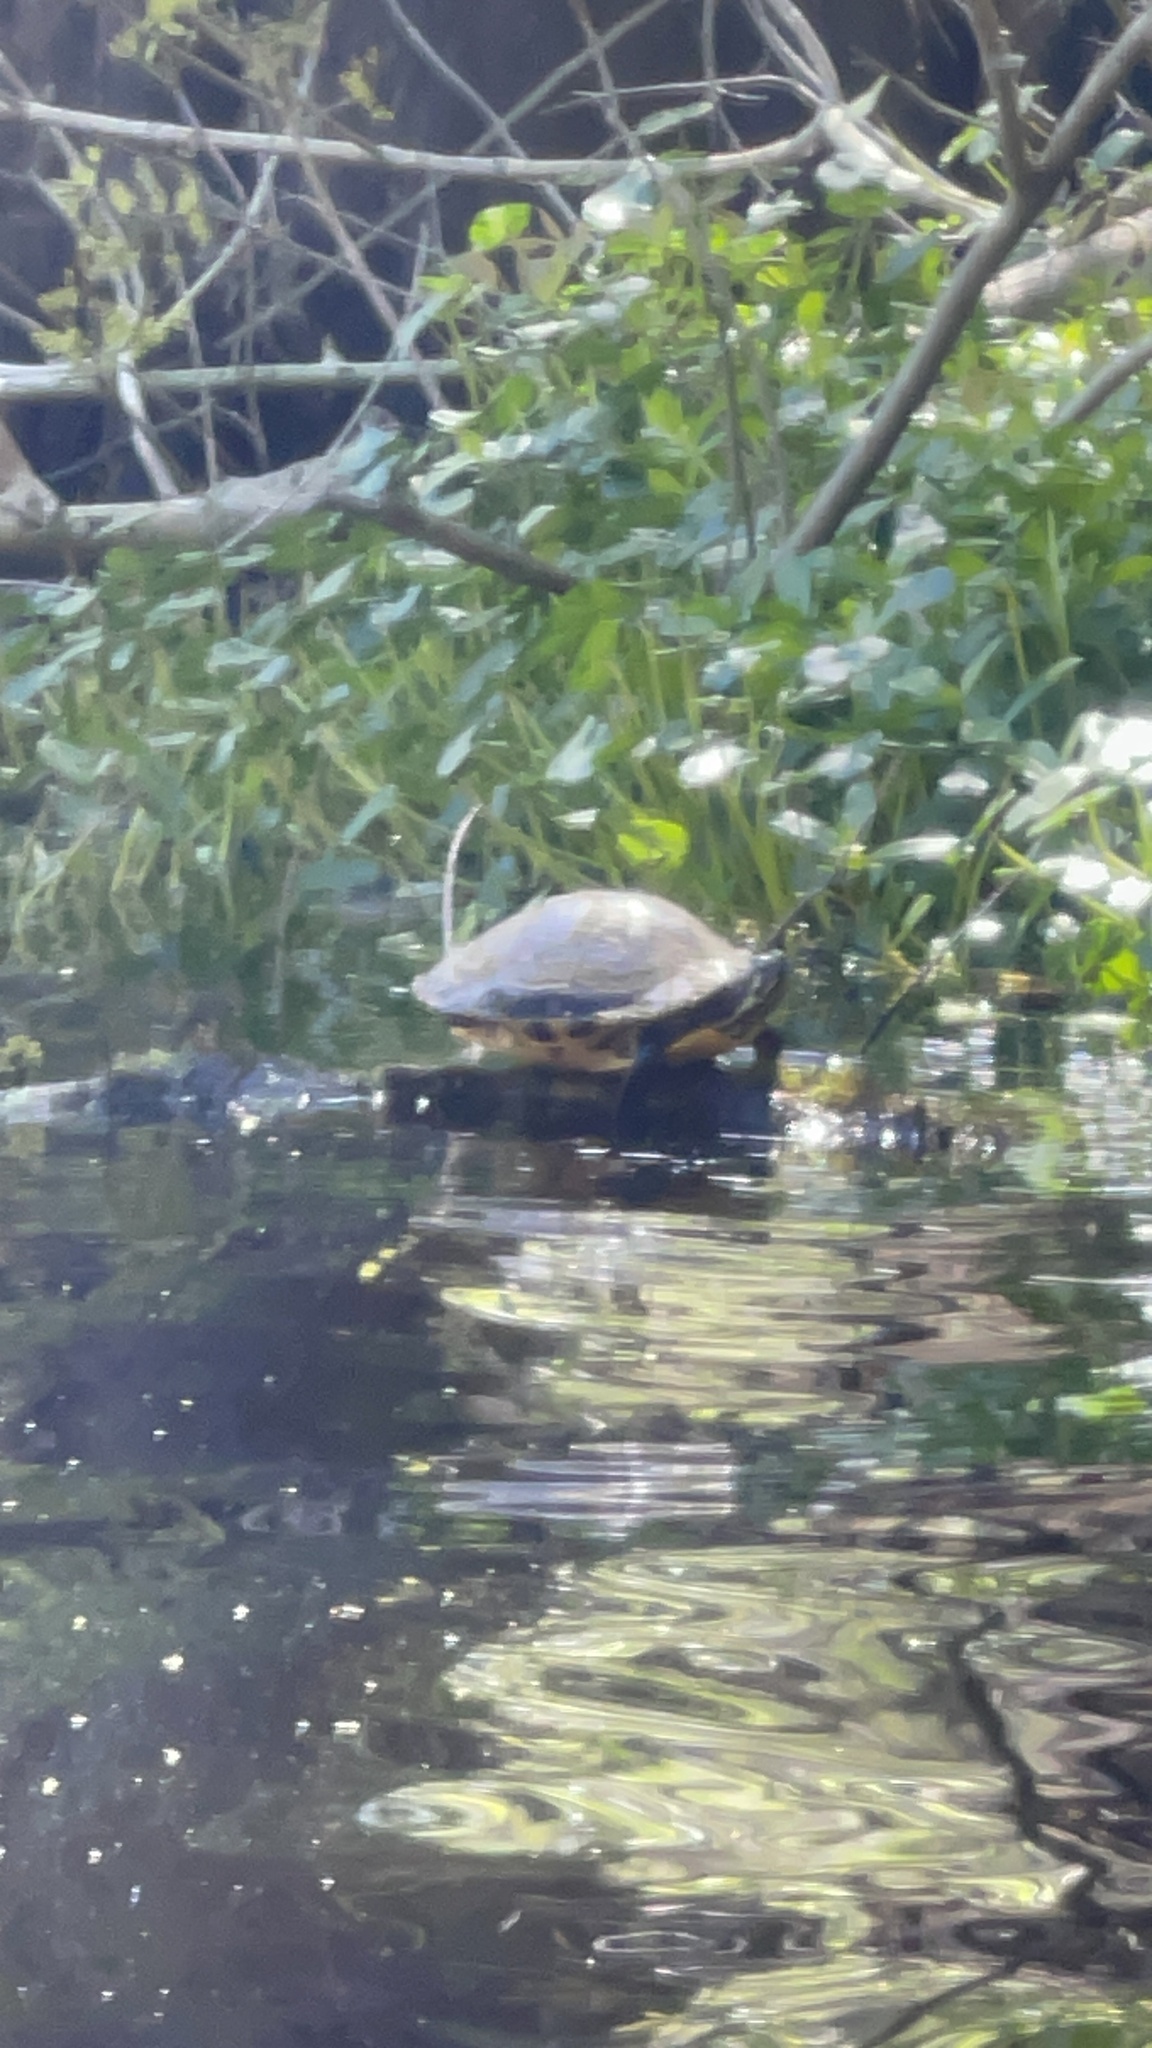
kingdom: Animalia
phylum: Chordata
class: Testudines
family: Emydidae
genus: Trachemys
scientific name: Trachemys scripta
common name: Slider
